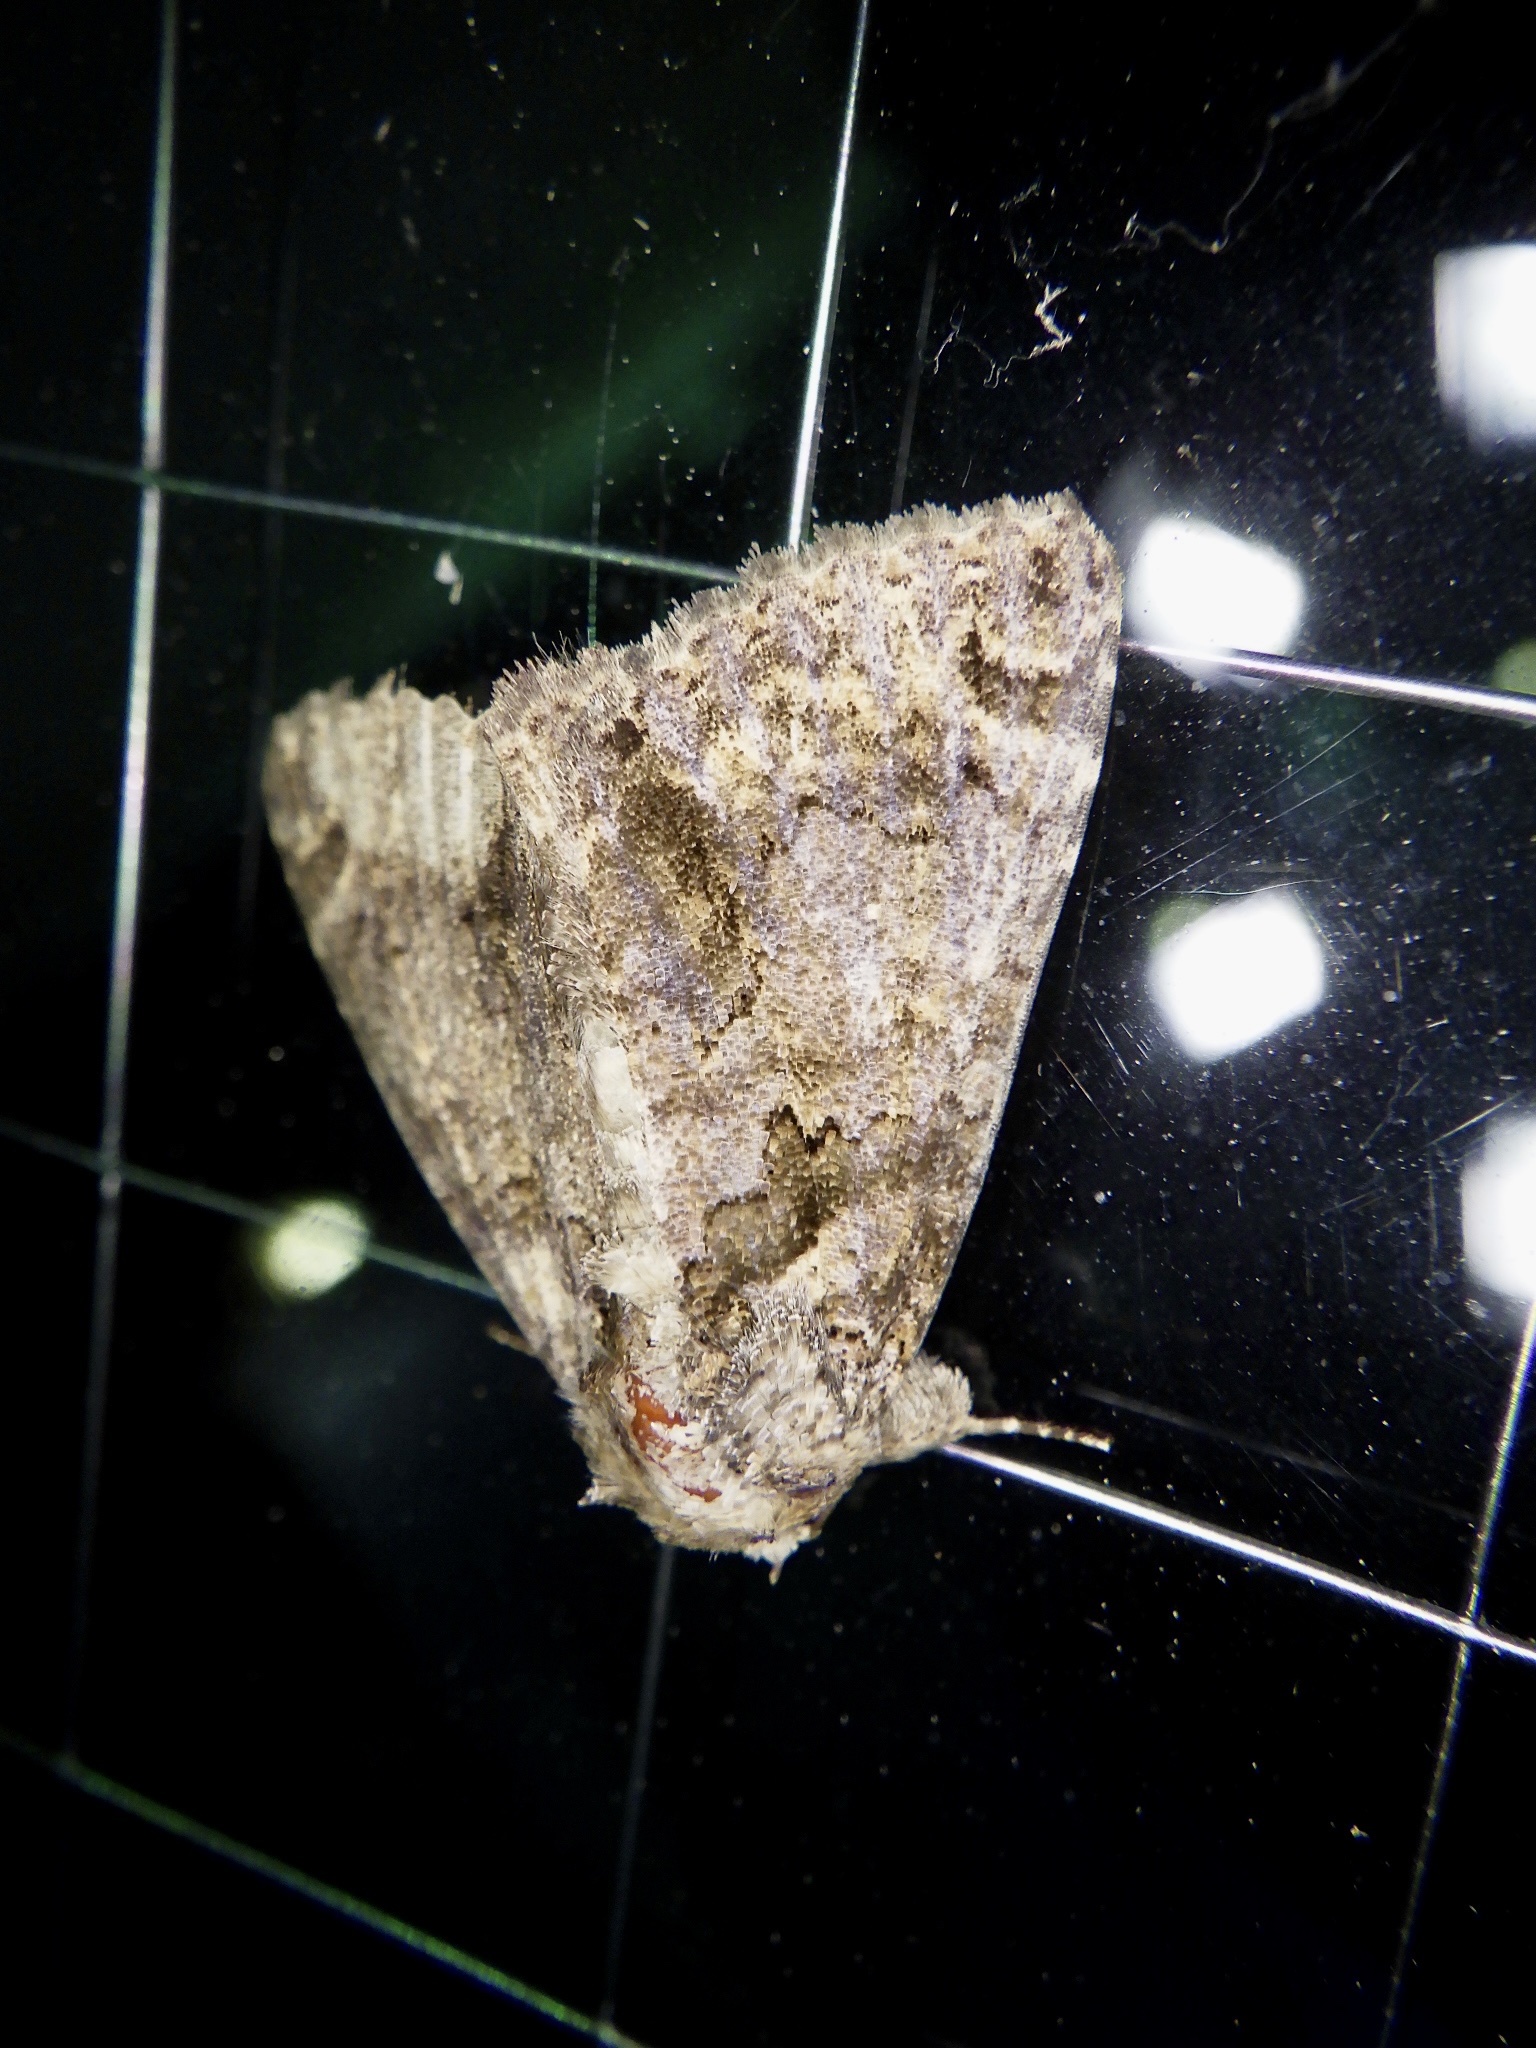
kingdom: Animalia
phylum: Arthropoda
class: Insecta
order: Lepidoptera
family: Erebidae
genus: Erygia
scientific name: Erygia apicalis
